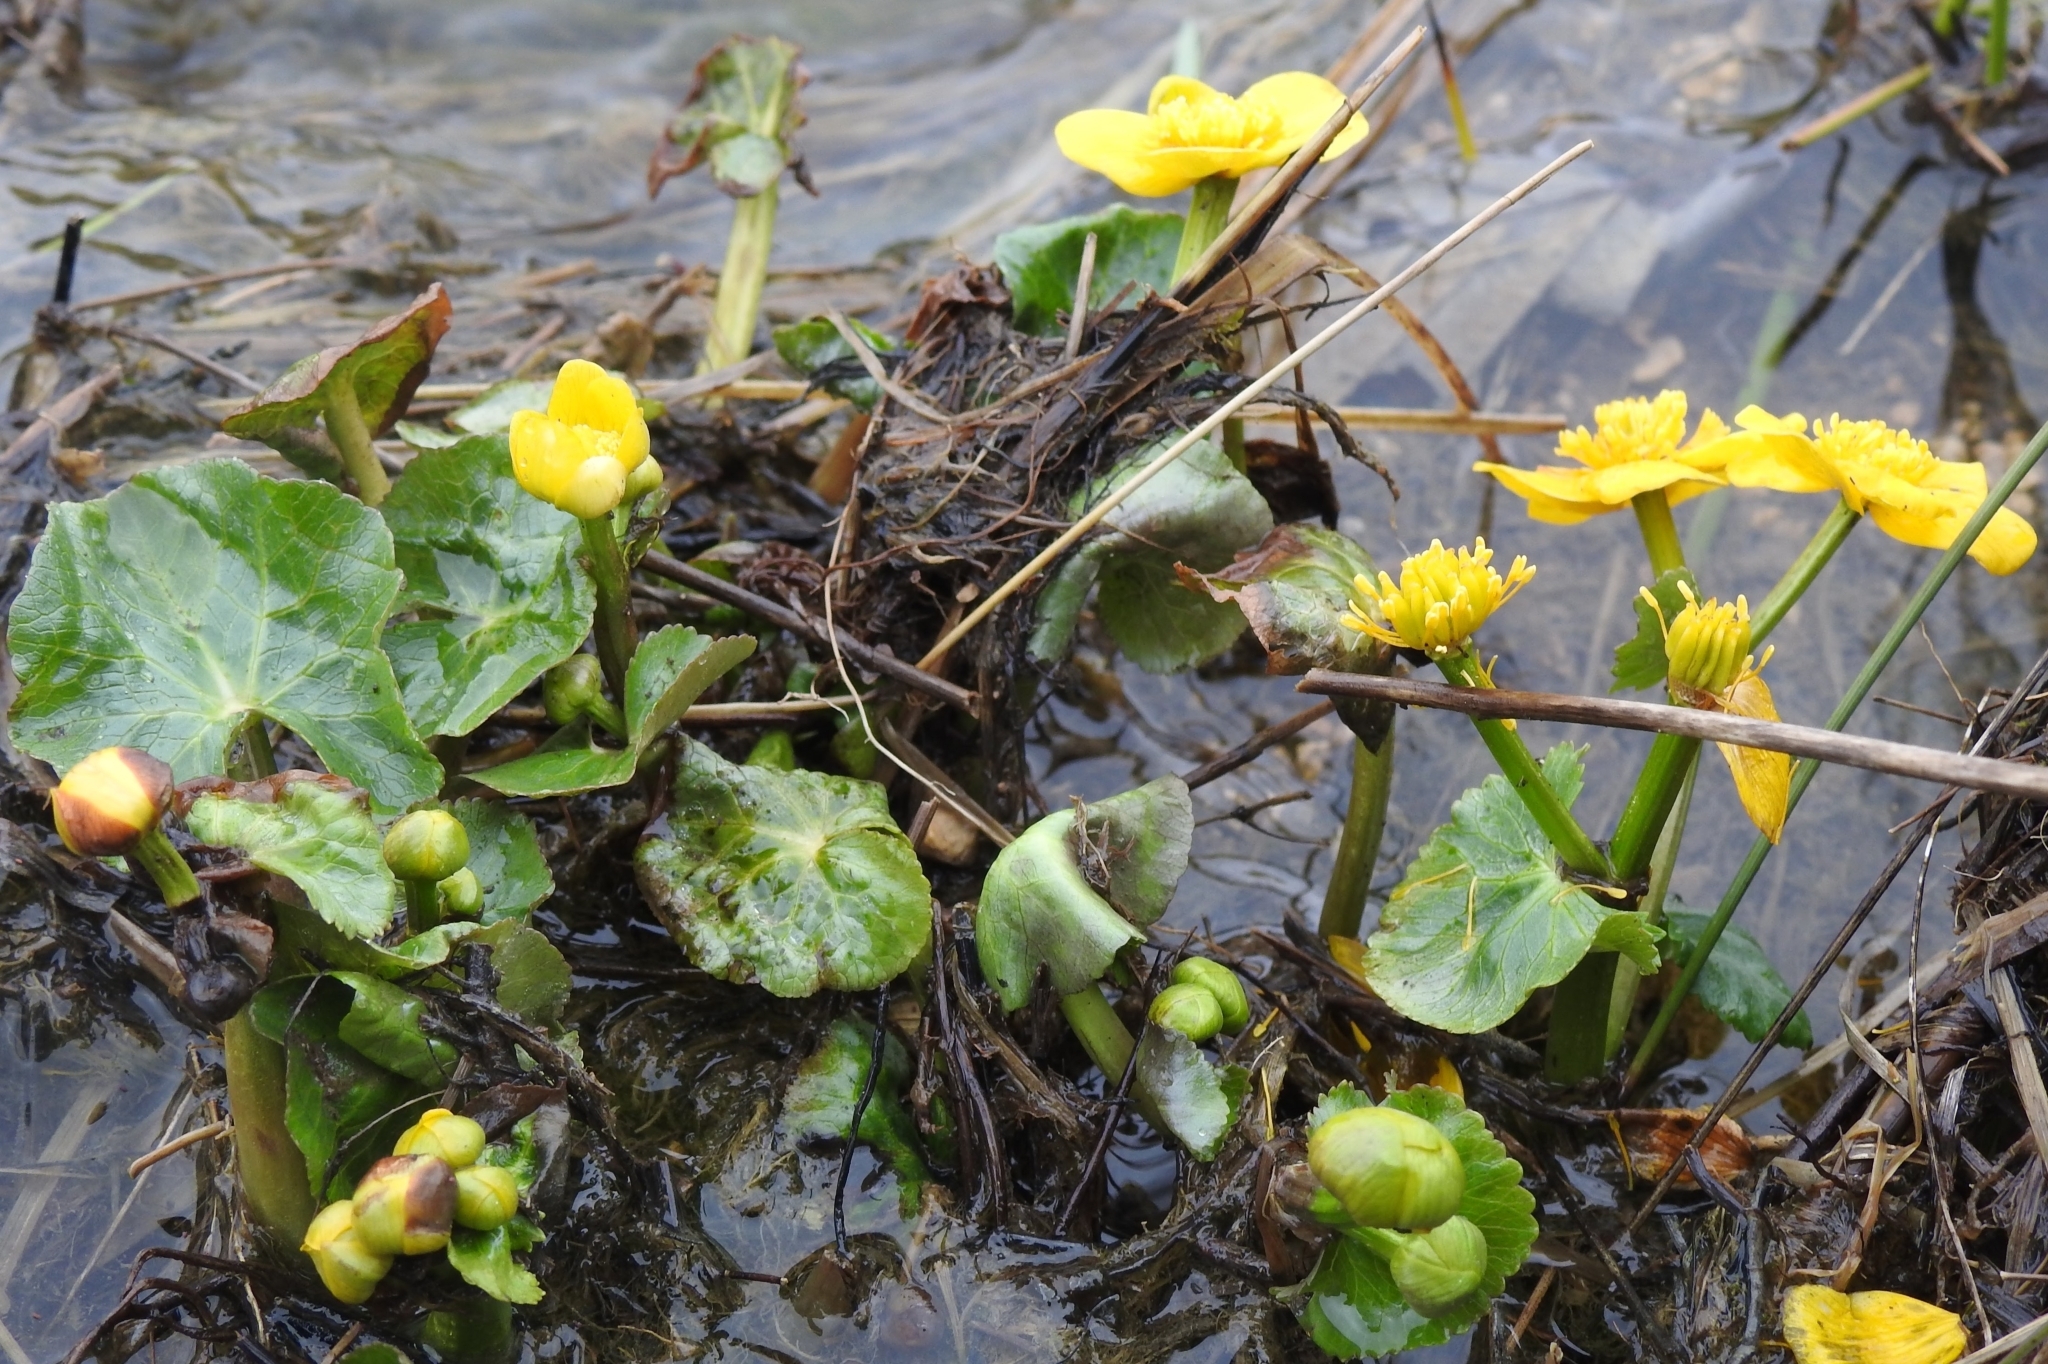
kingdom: Plantae
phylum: Tracheophyta
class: Magnoliopsida
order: Ranunculales
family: Ranunculaceae
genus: Caltha
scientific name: Caltha palustris
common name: Marsh marigold
